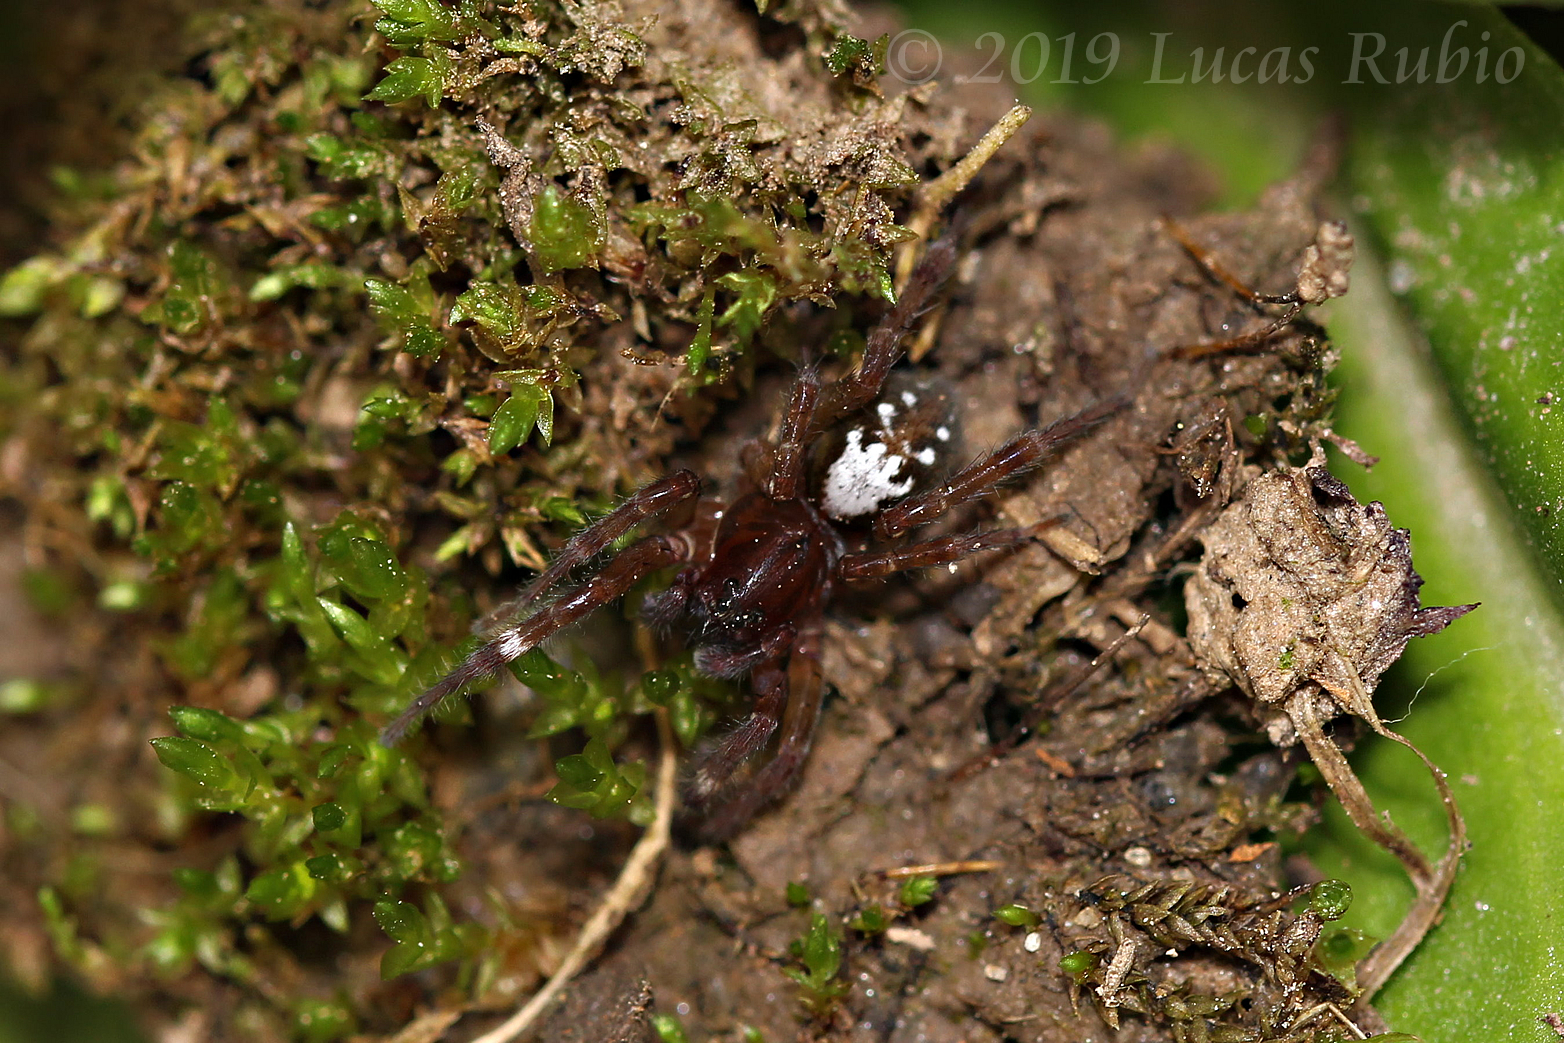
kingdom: Animalia
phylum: Arthropoda
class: Arachnida
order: Araneae
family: Lycosidae
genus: Agalenocosa
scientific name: Agalenocosa grismadoi
